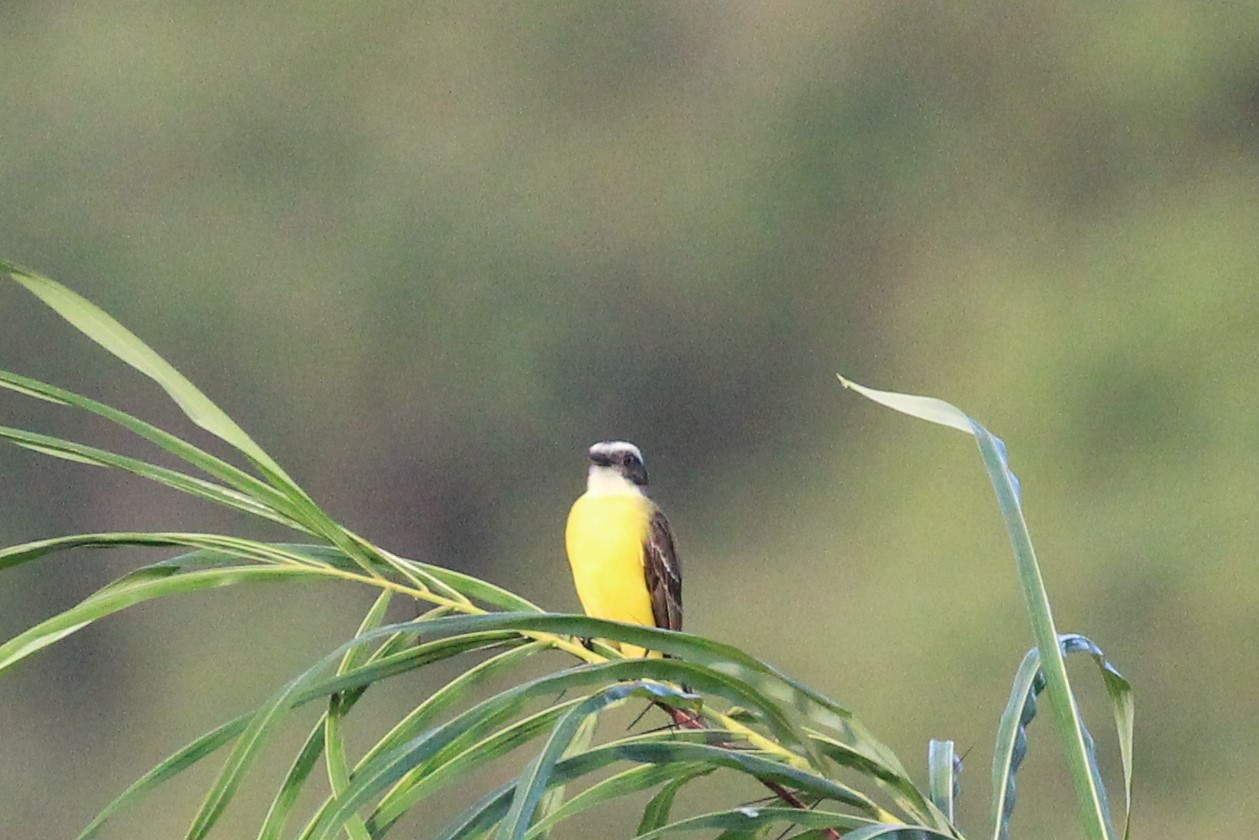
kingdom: Animalia
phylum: Chordata
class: Aves
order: Passeriformes
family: Tyrannidae
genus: Myiozetetes
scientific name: Myiozetetes similis
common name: Social flycatcher
